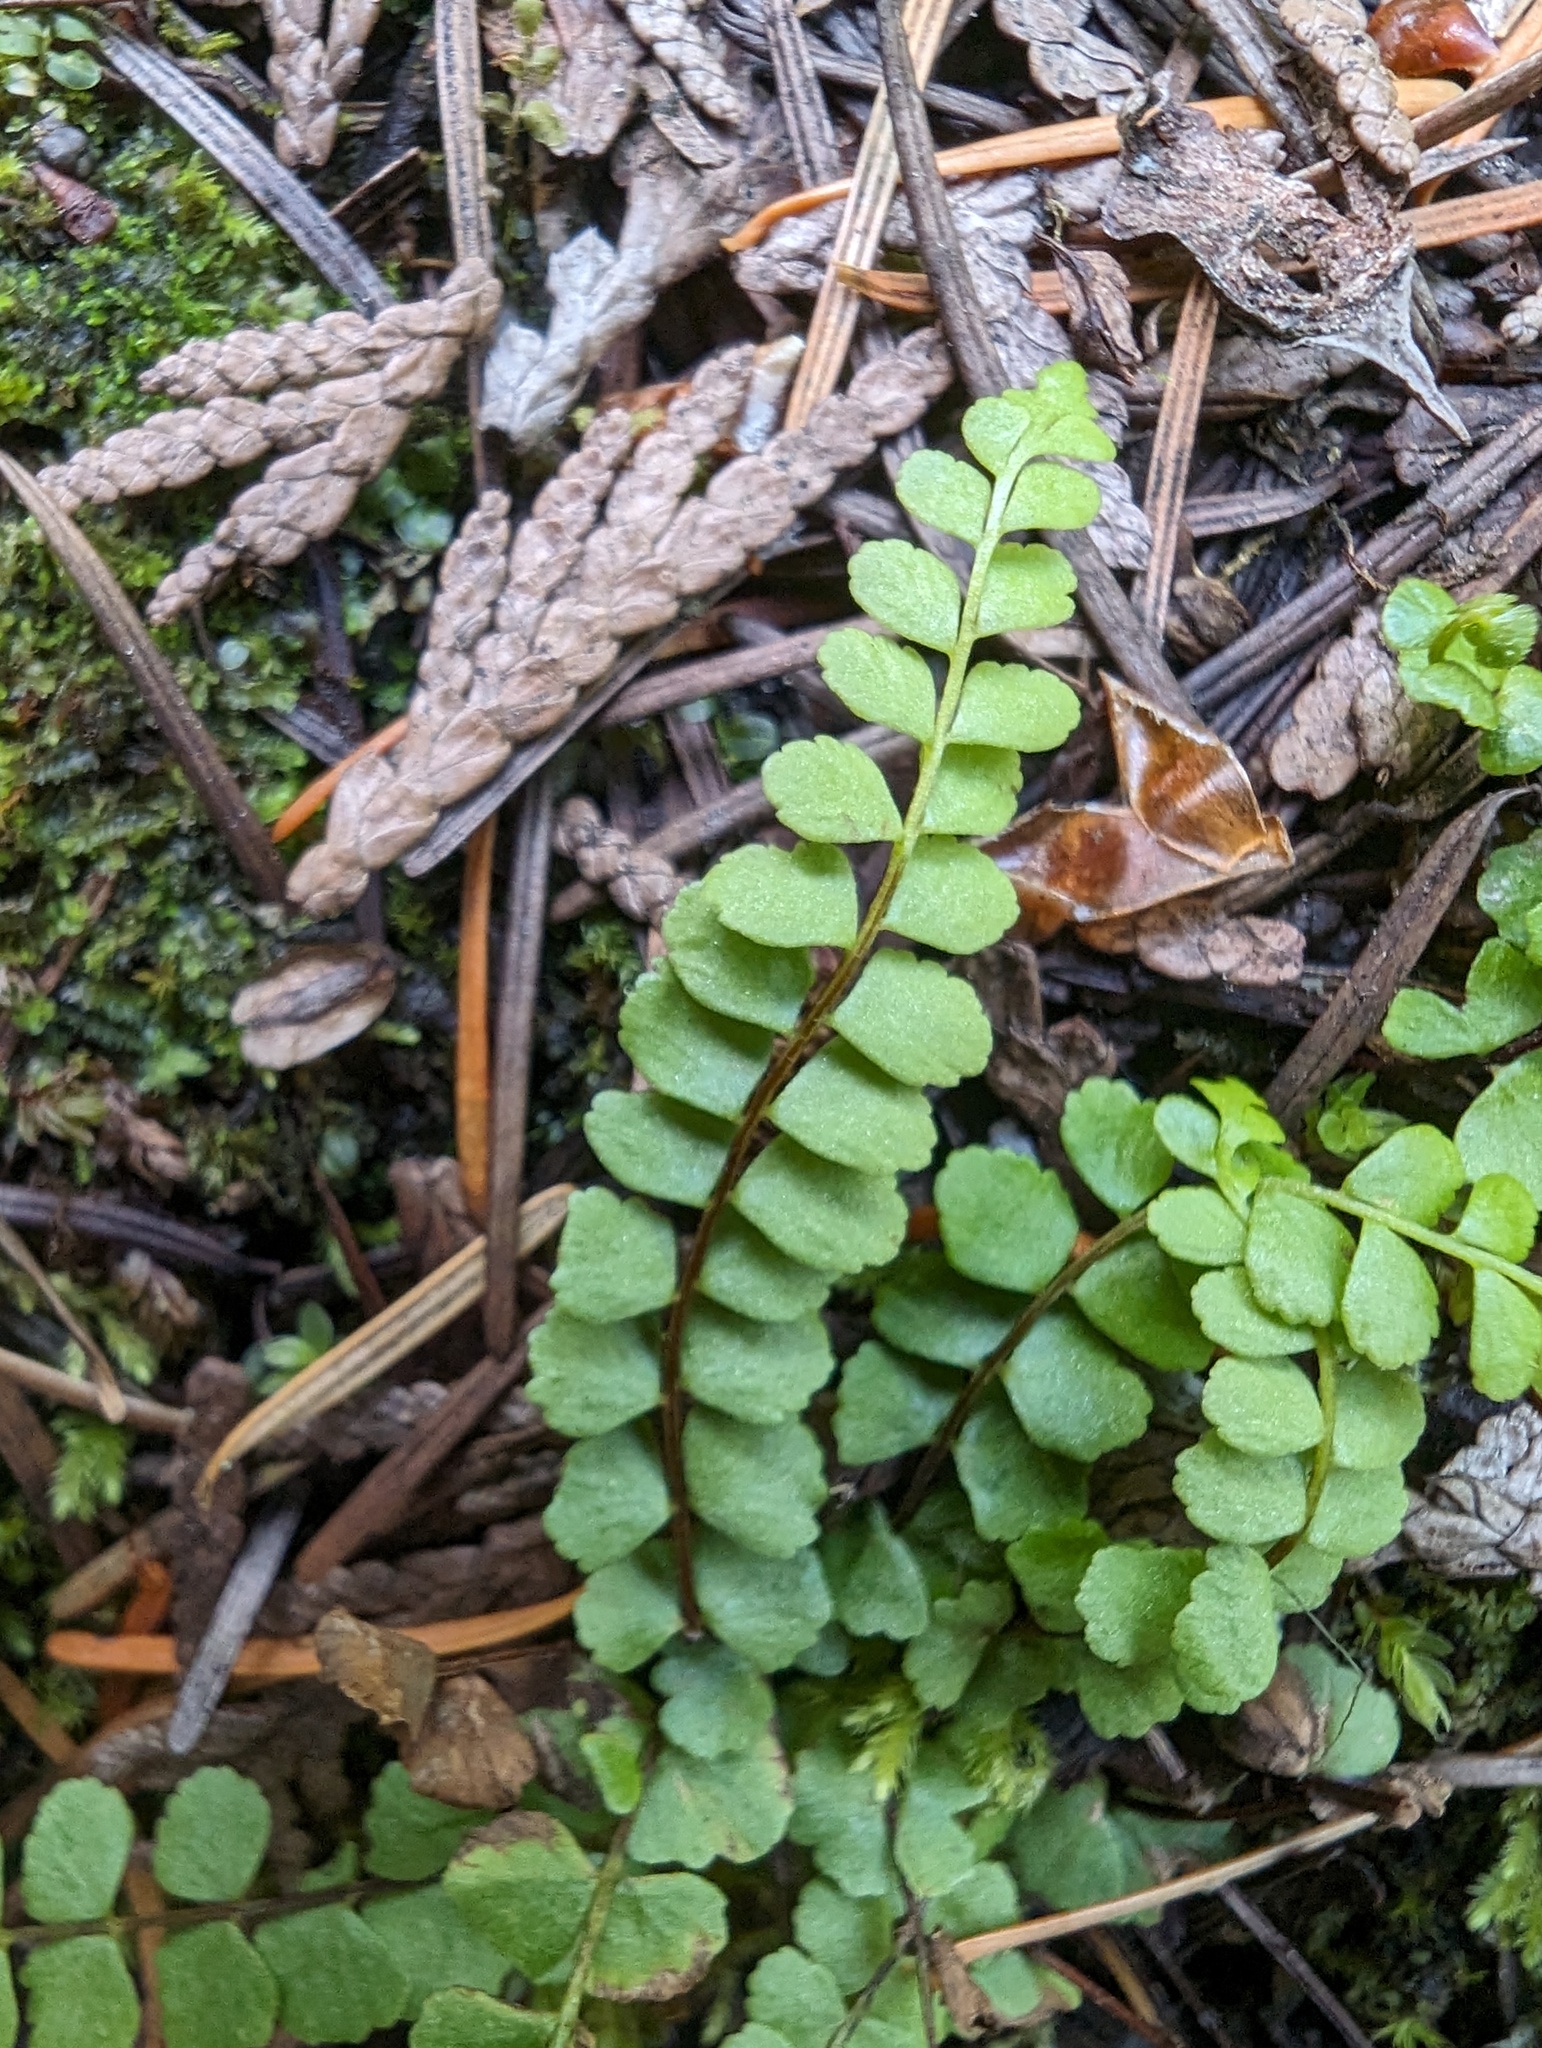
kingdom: Plantae
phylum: Tracheophyta
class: Polypodiopsida
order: Polypodiales
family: Aspleniaceae
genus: Asplenium
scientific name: Asplenium adulterinum
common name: Adulterated spleenwort
